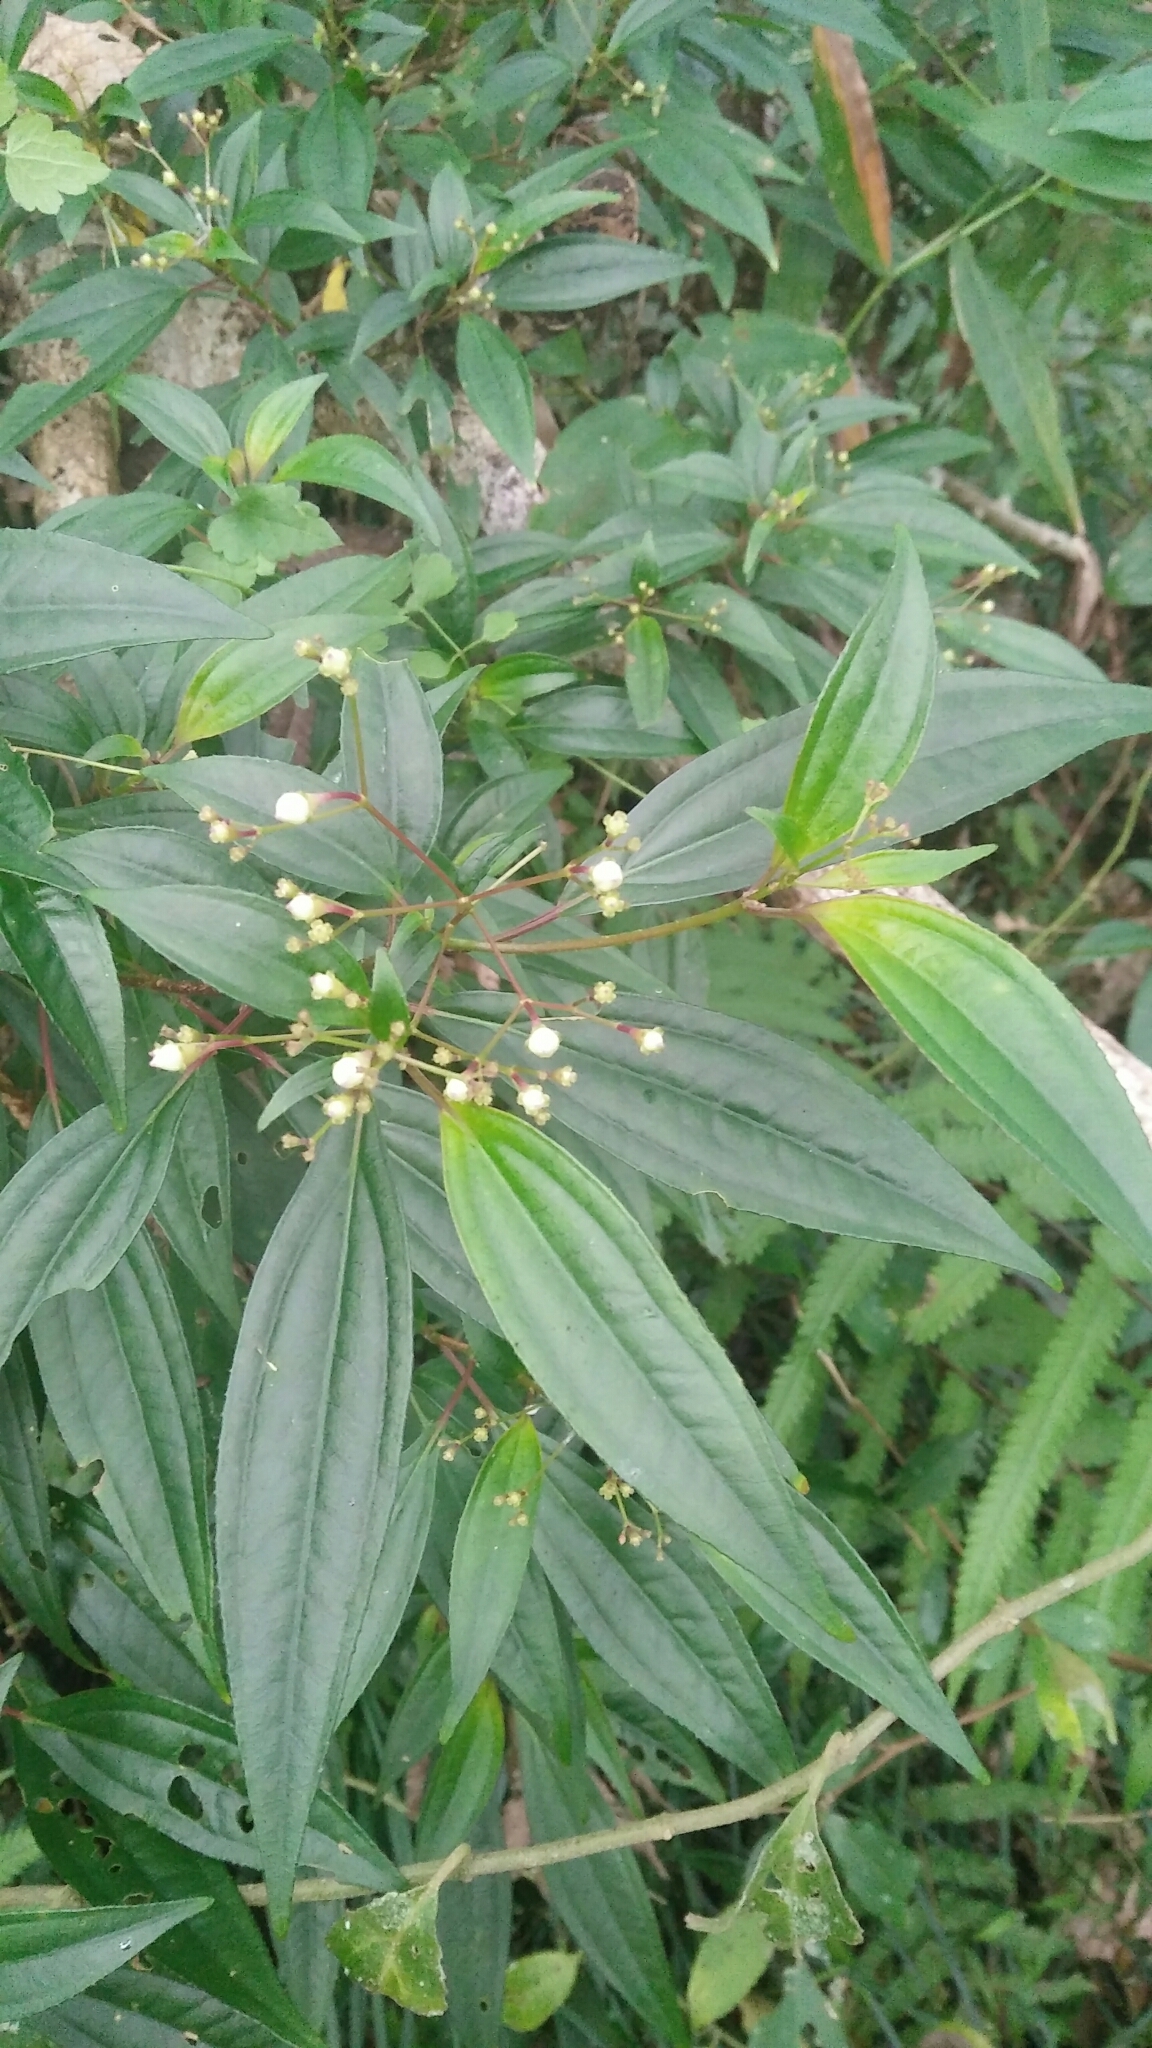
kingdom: Plantae
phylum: Tracheophyta
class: Magnoliopsida
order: Myrtales
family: Melastomataceae
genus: Bredia
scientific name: Bredia oldhamii
